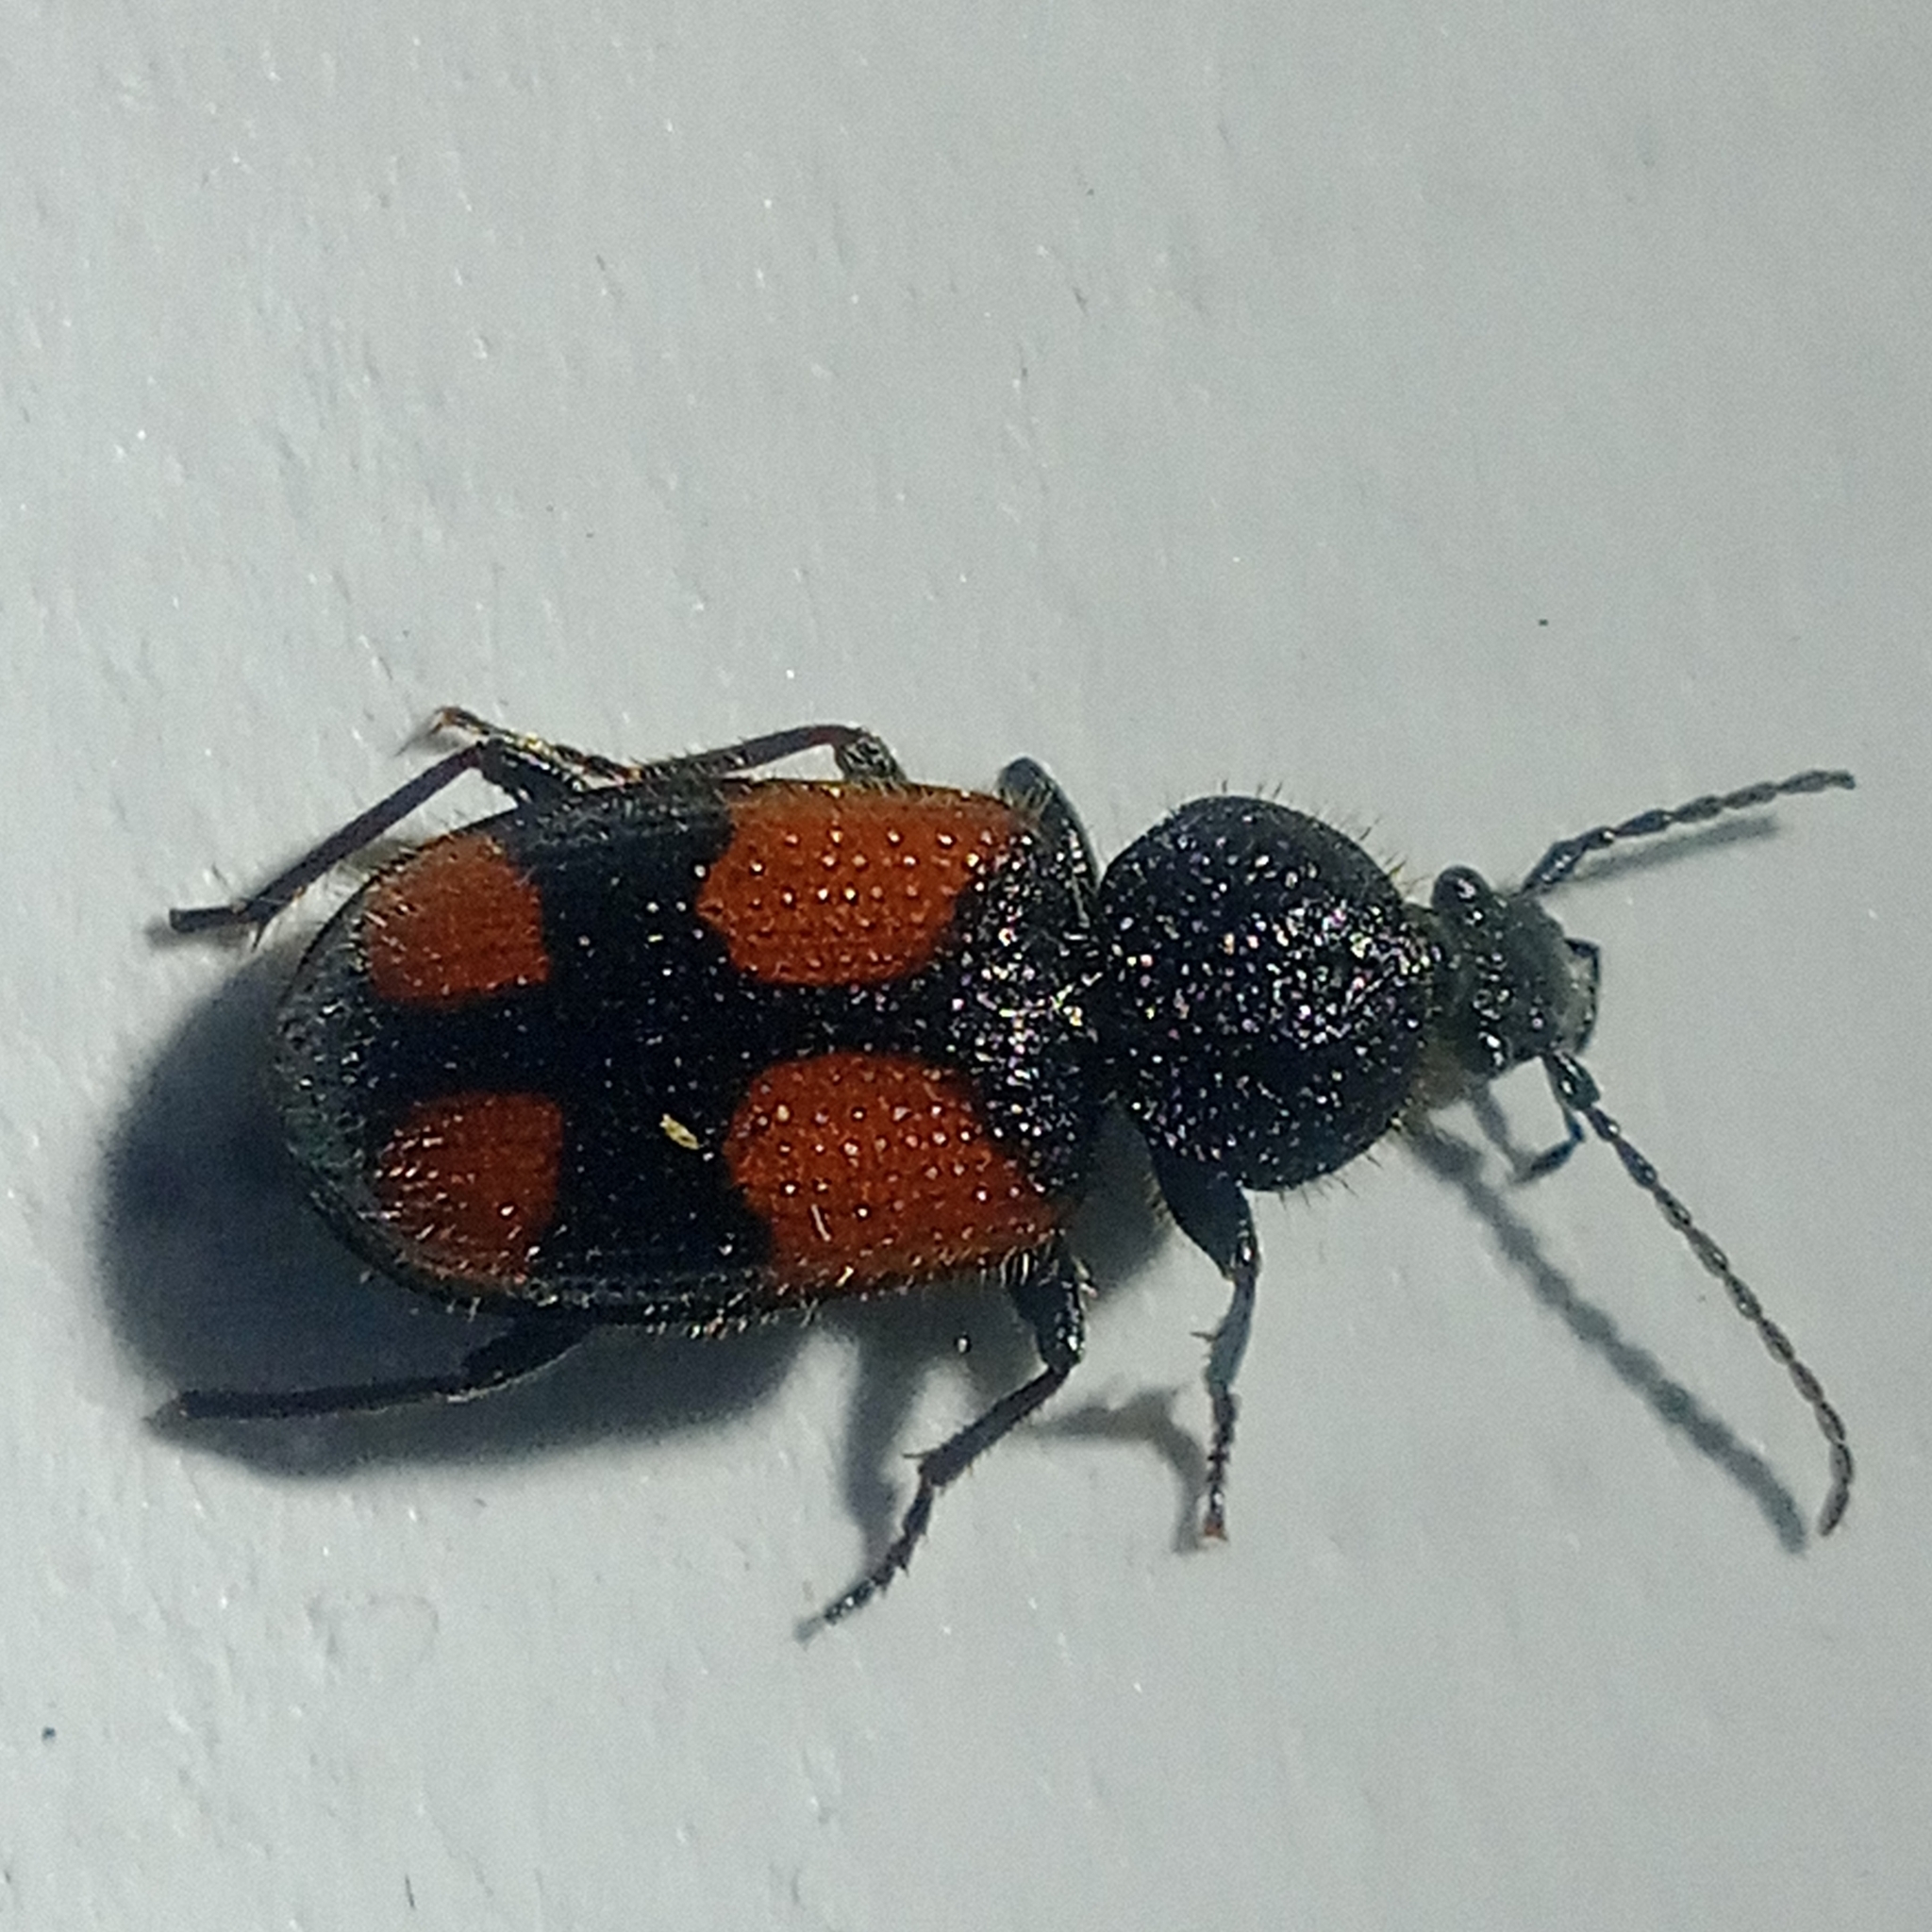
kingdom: Animalia
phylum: Arthropoda
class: Insecta
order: Coleoptera
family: Carabidae
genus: Panagaeus
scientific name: Panagaeus bipustulatus
